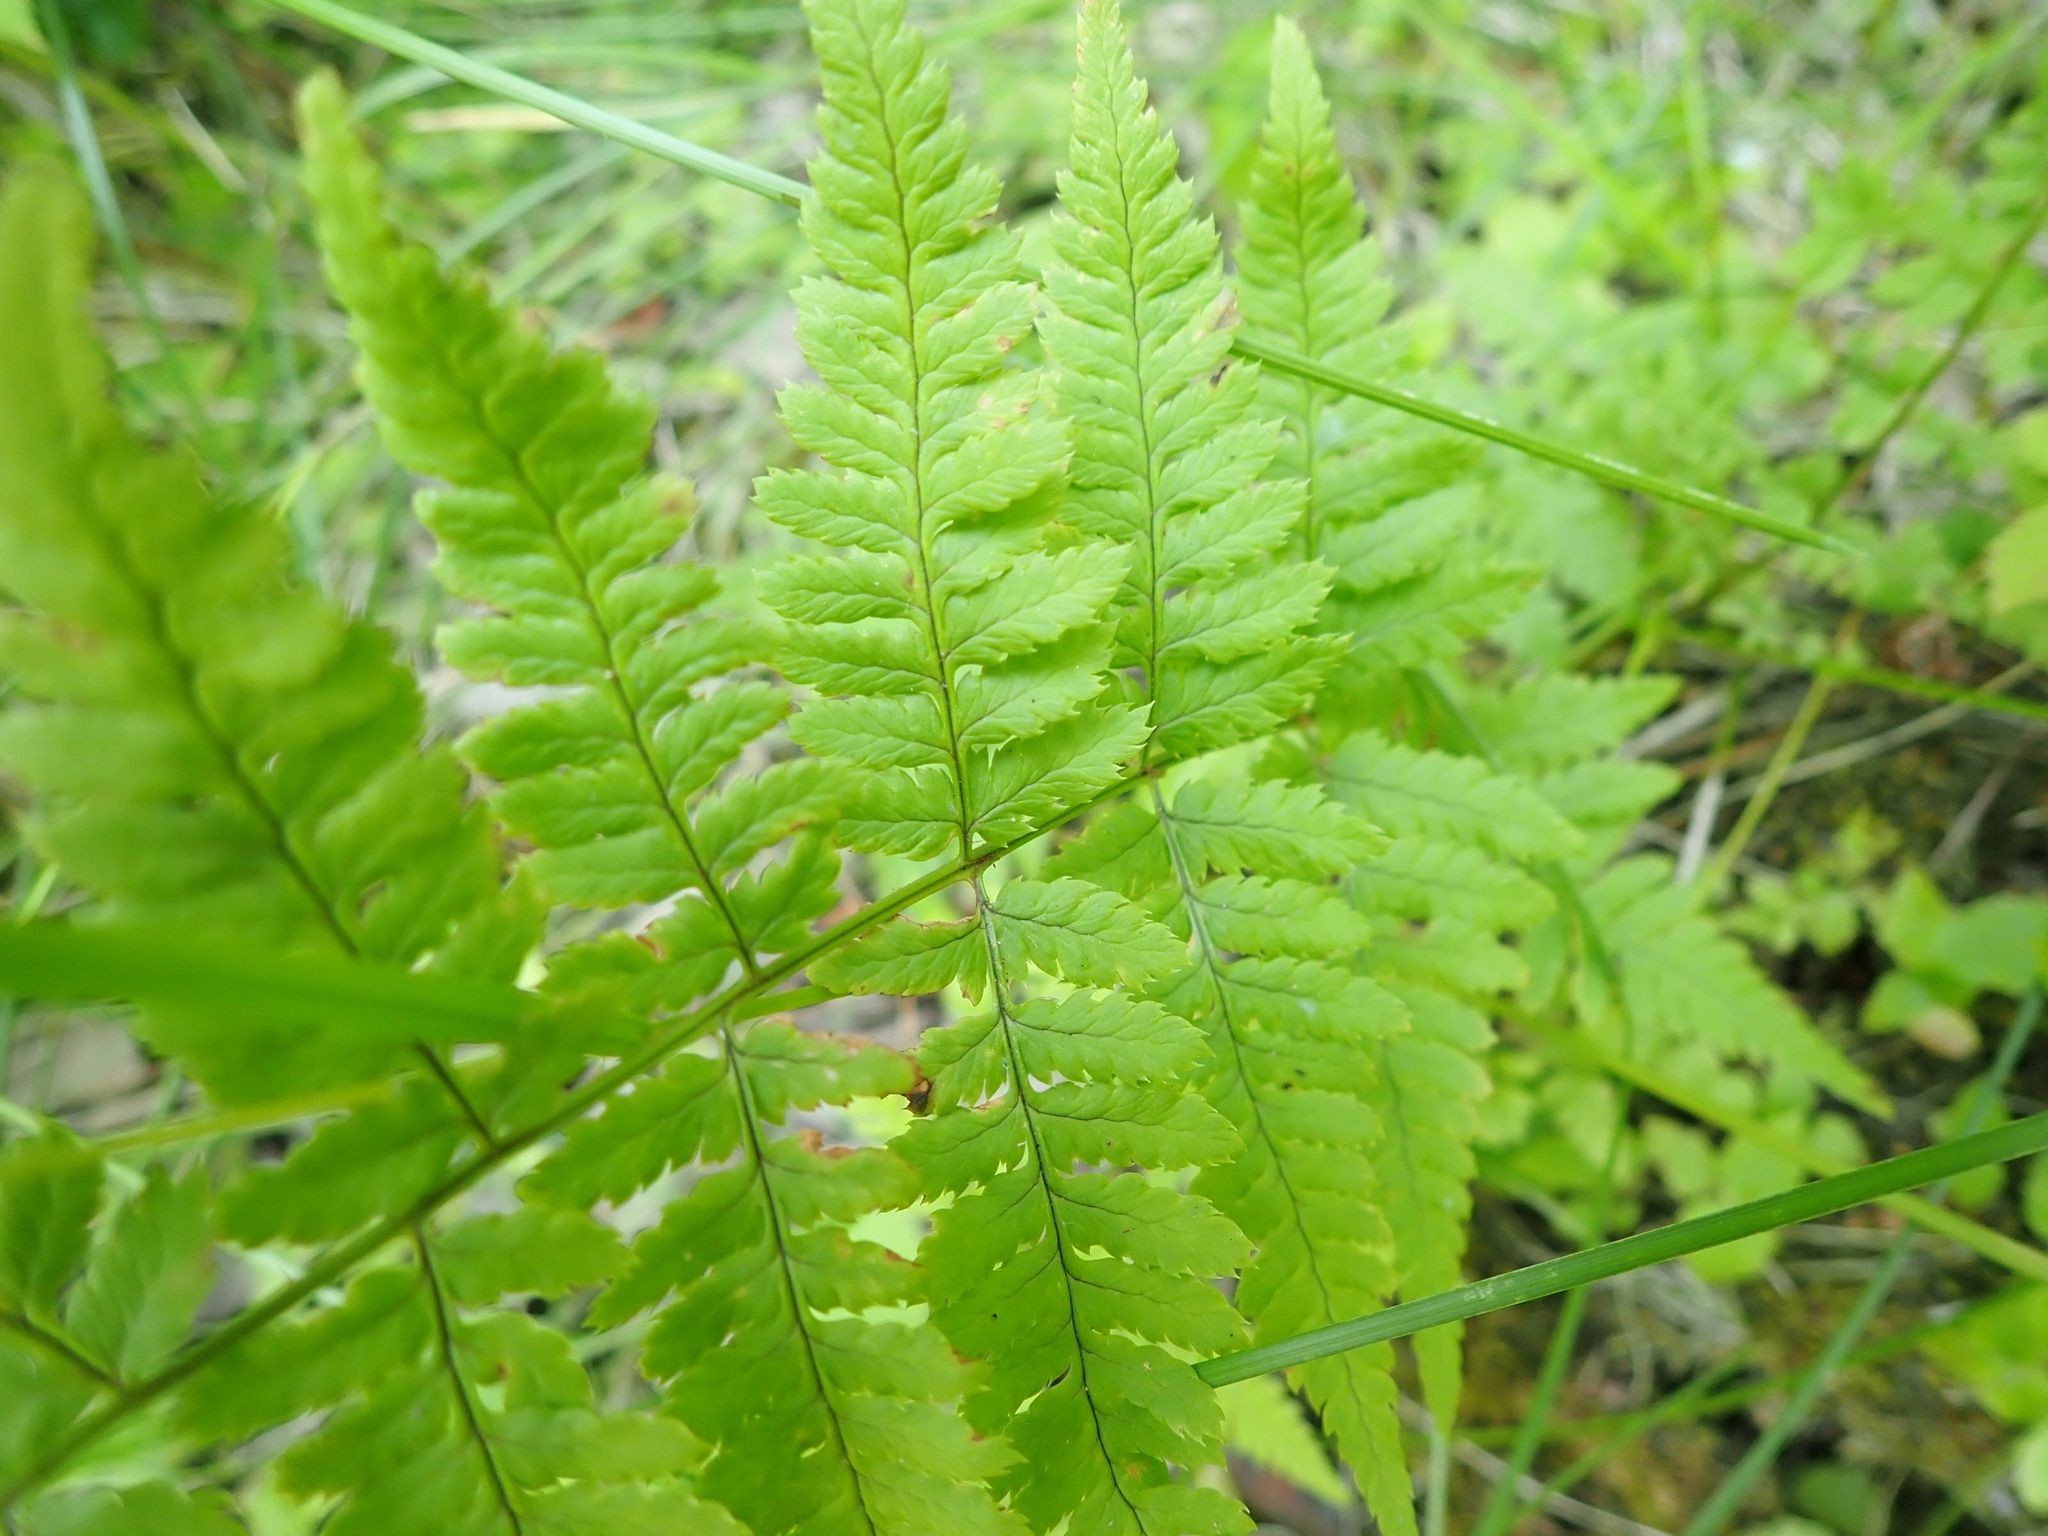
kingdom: Plantae
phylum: Tracheophyta
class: Polypodiopsida
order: Polypodiales
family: Dryopteridaceae
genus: Dryopteris
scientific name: Dryopteris carthusiana
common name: Narrow buckler-fern
